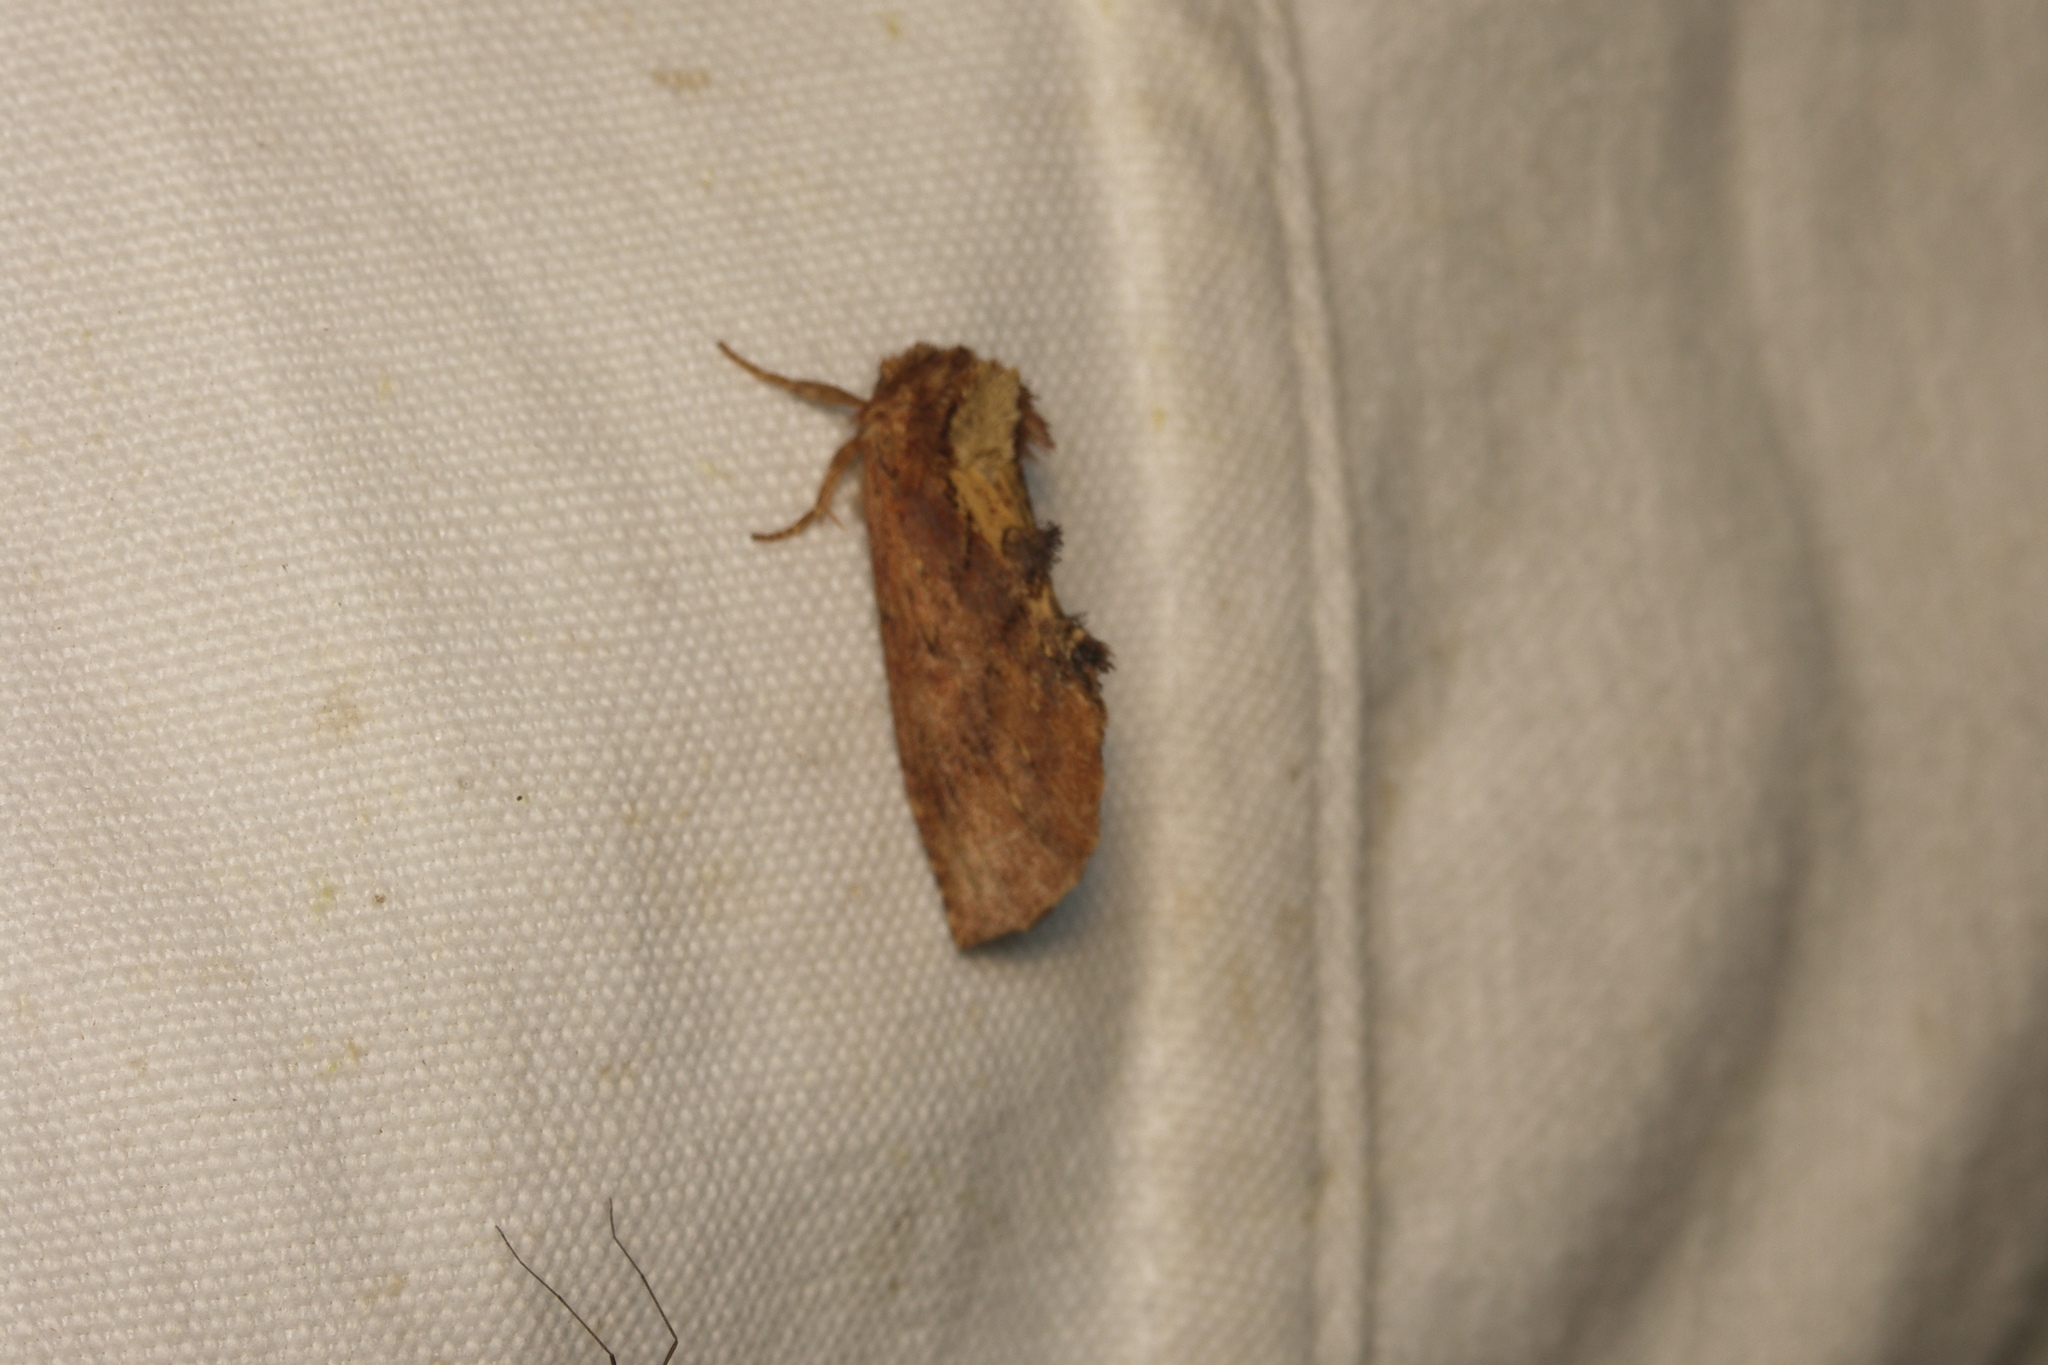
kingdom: Animalia
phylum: Arthropoda
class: Insecta
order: Lepidoptera
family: Notodontidae
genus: Ptilodon
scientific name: Ptilodon capucina
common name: Coxcomb prominent
